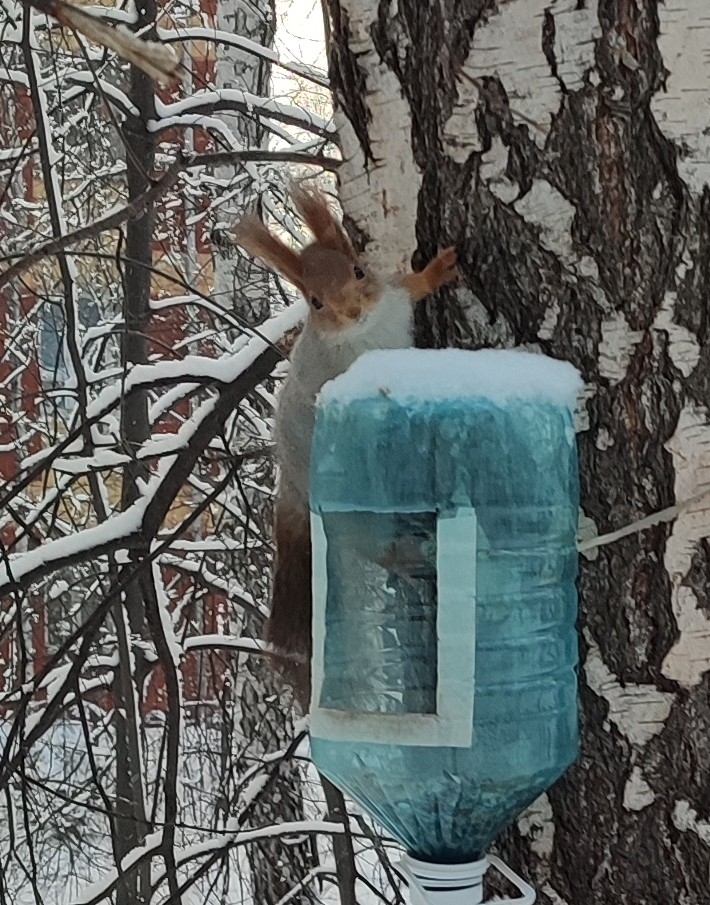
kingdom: Animalia
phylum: Chordata
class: Mammalia
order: Rodentia
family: Sciuridae
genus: Sciurus
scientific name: Sciurus vulgaris
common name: Eurasian red squirrel
